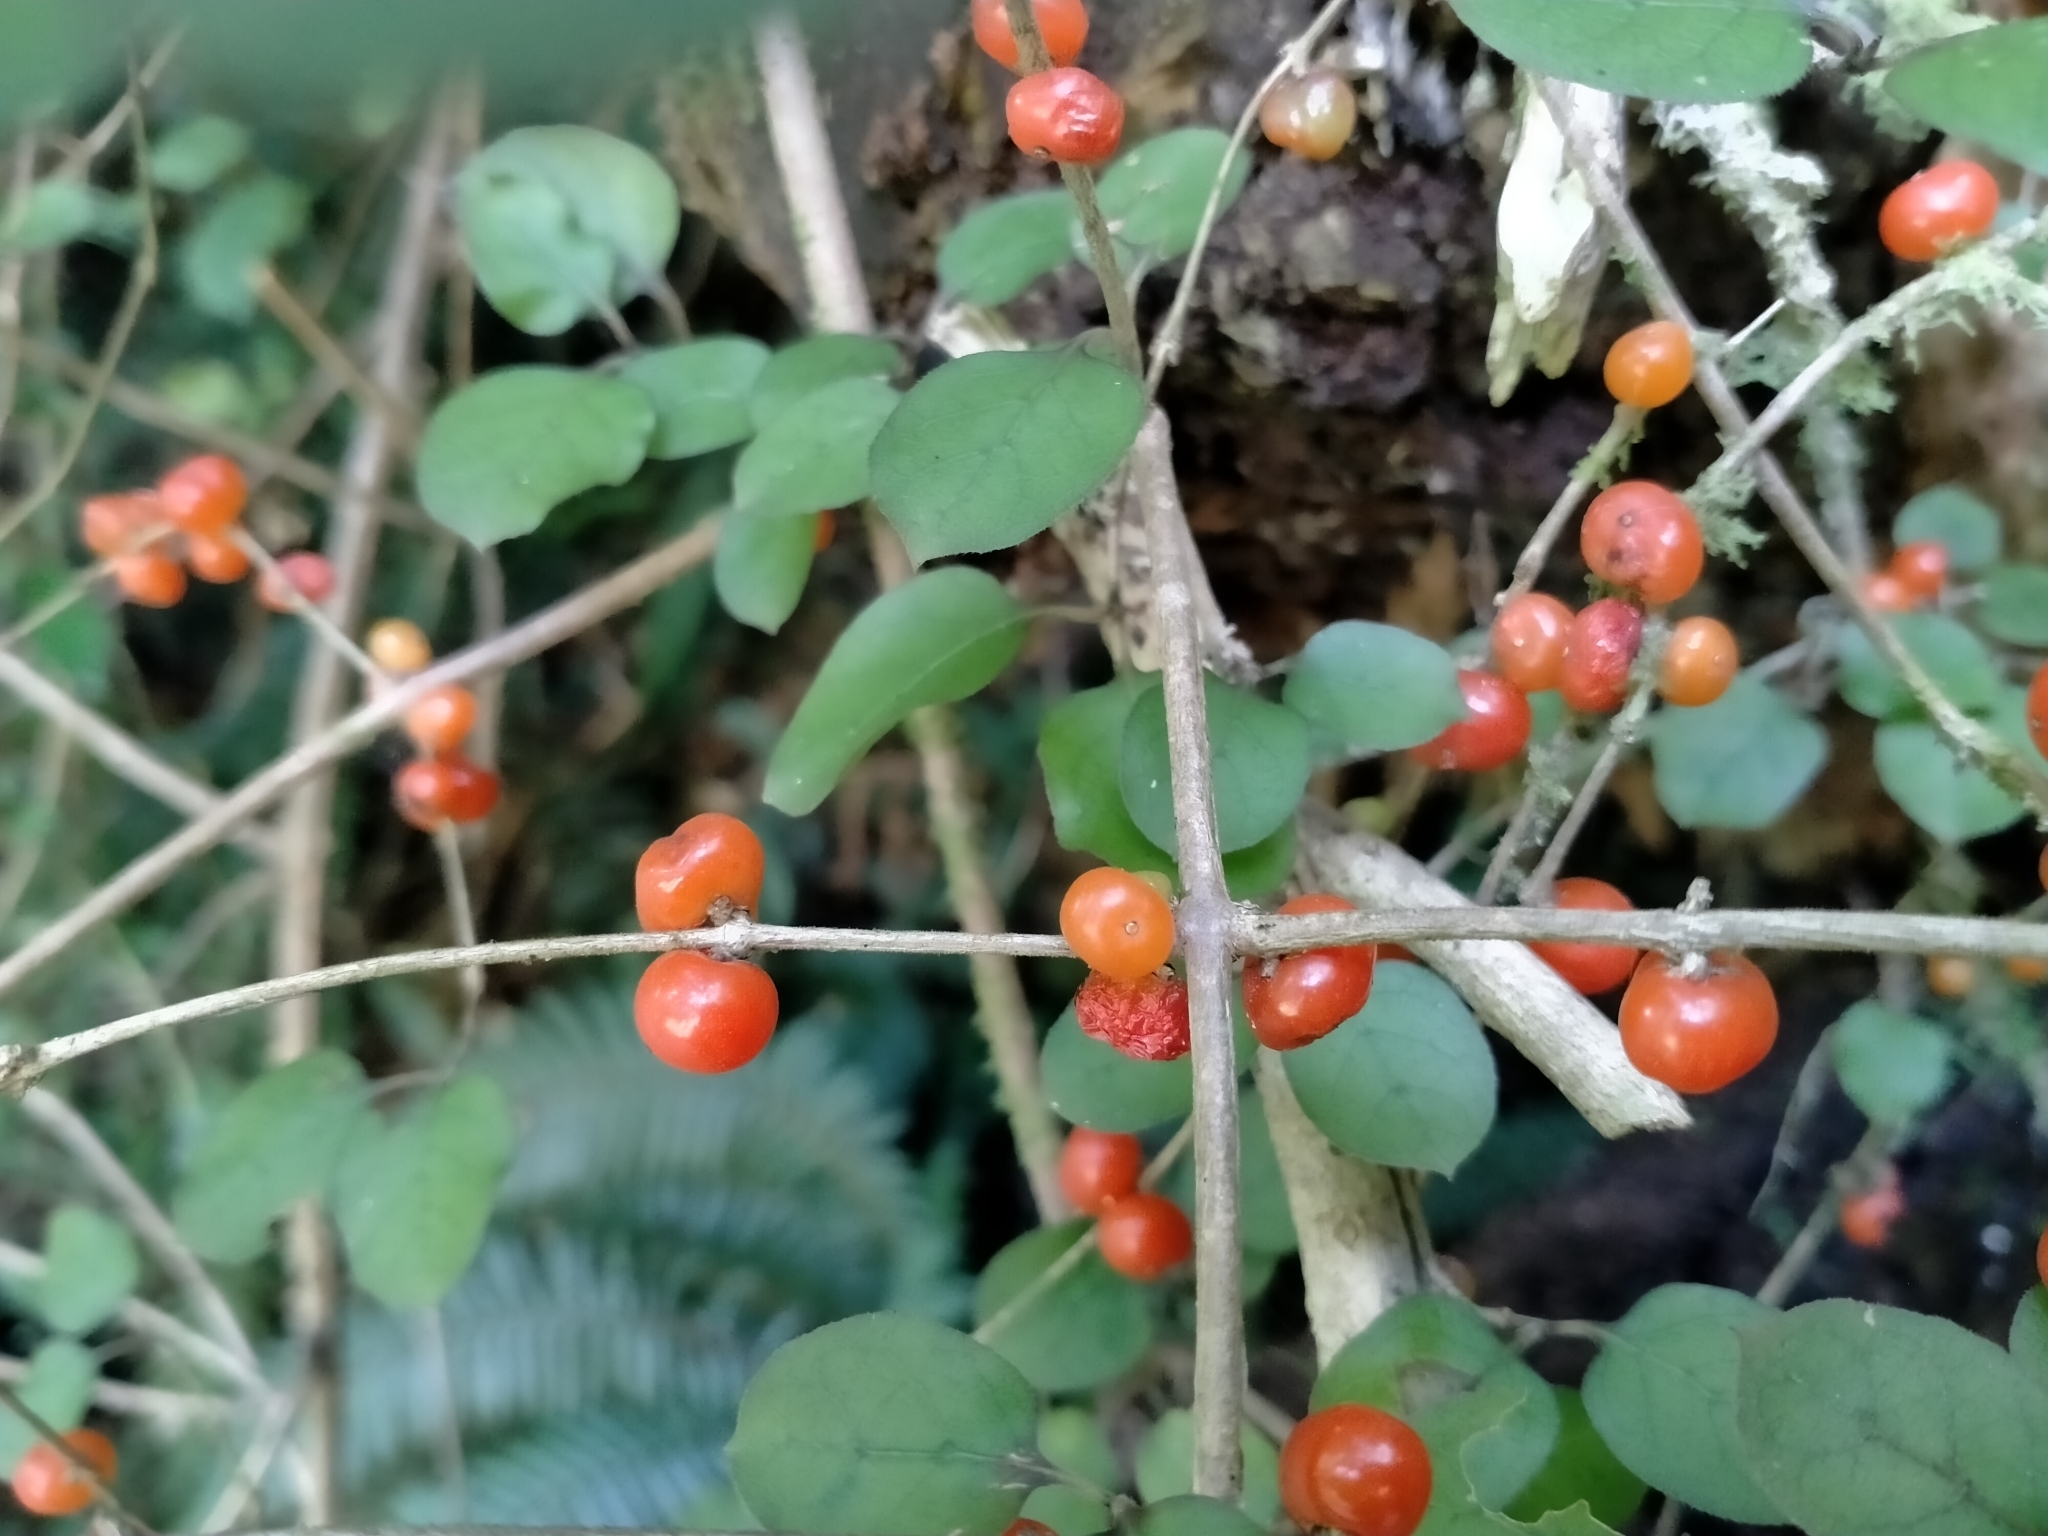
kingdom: Plantae
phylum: Tracheophyta
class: Magnoliopsida
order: Gentianales
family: Rubiaceae
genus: Coprosma
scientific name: Coprosma rotundifolia
